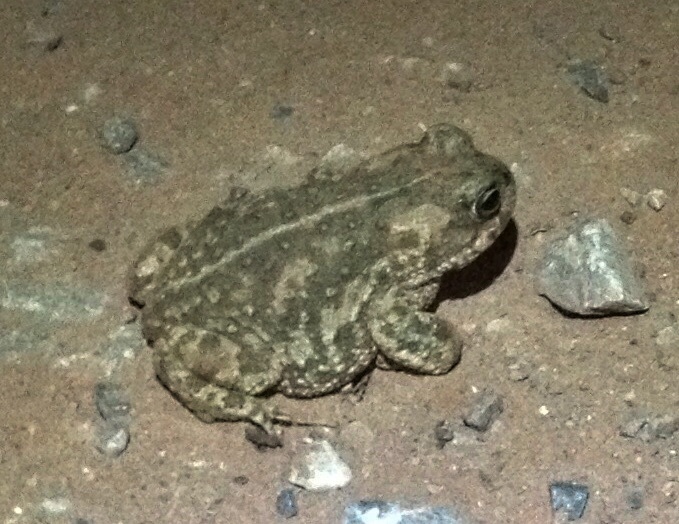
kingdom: Animalia
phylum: Chordata
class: Amphibia
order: Anura
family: Bufonidae
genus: Epidalea
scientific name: Epidalea calamita
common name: Natterjack toad
